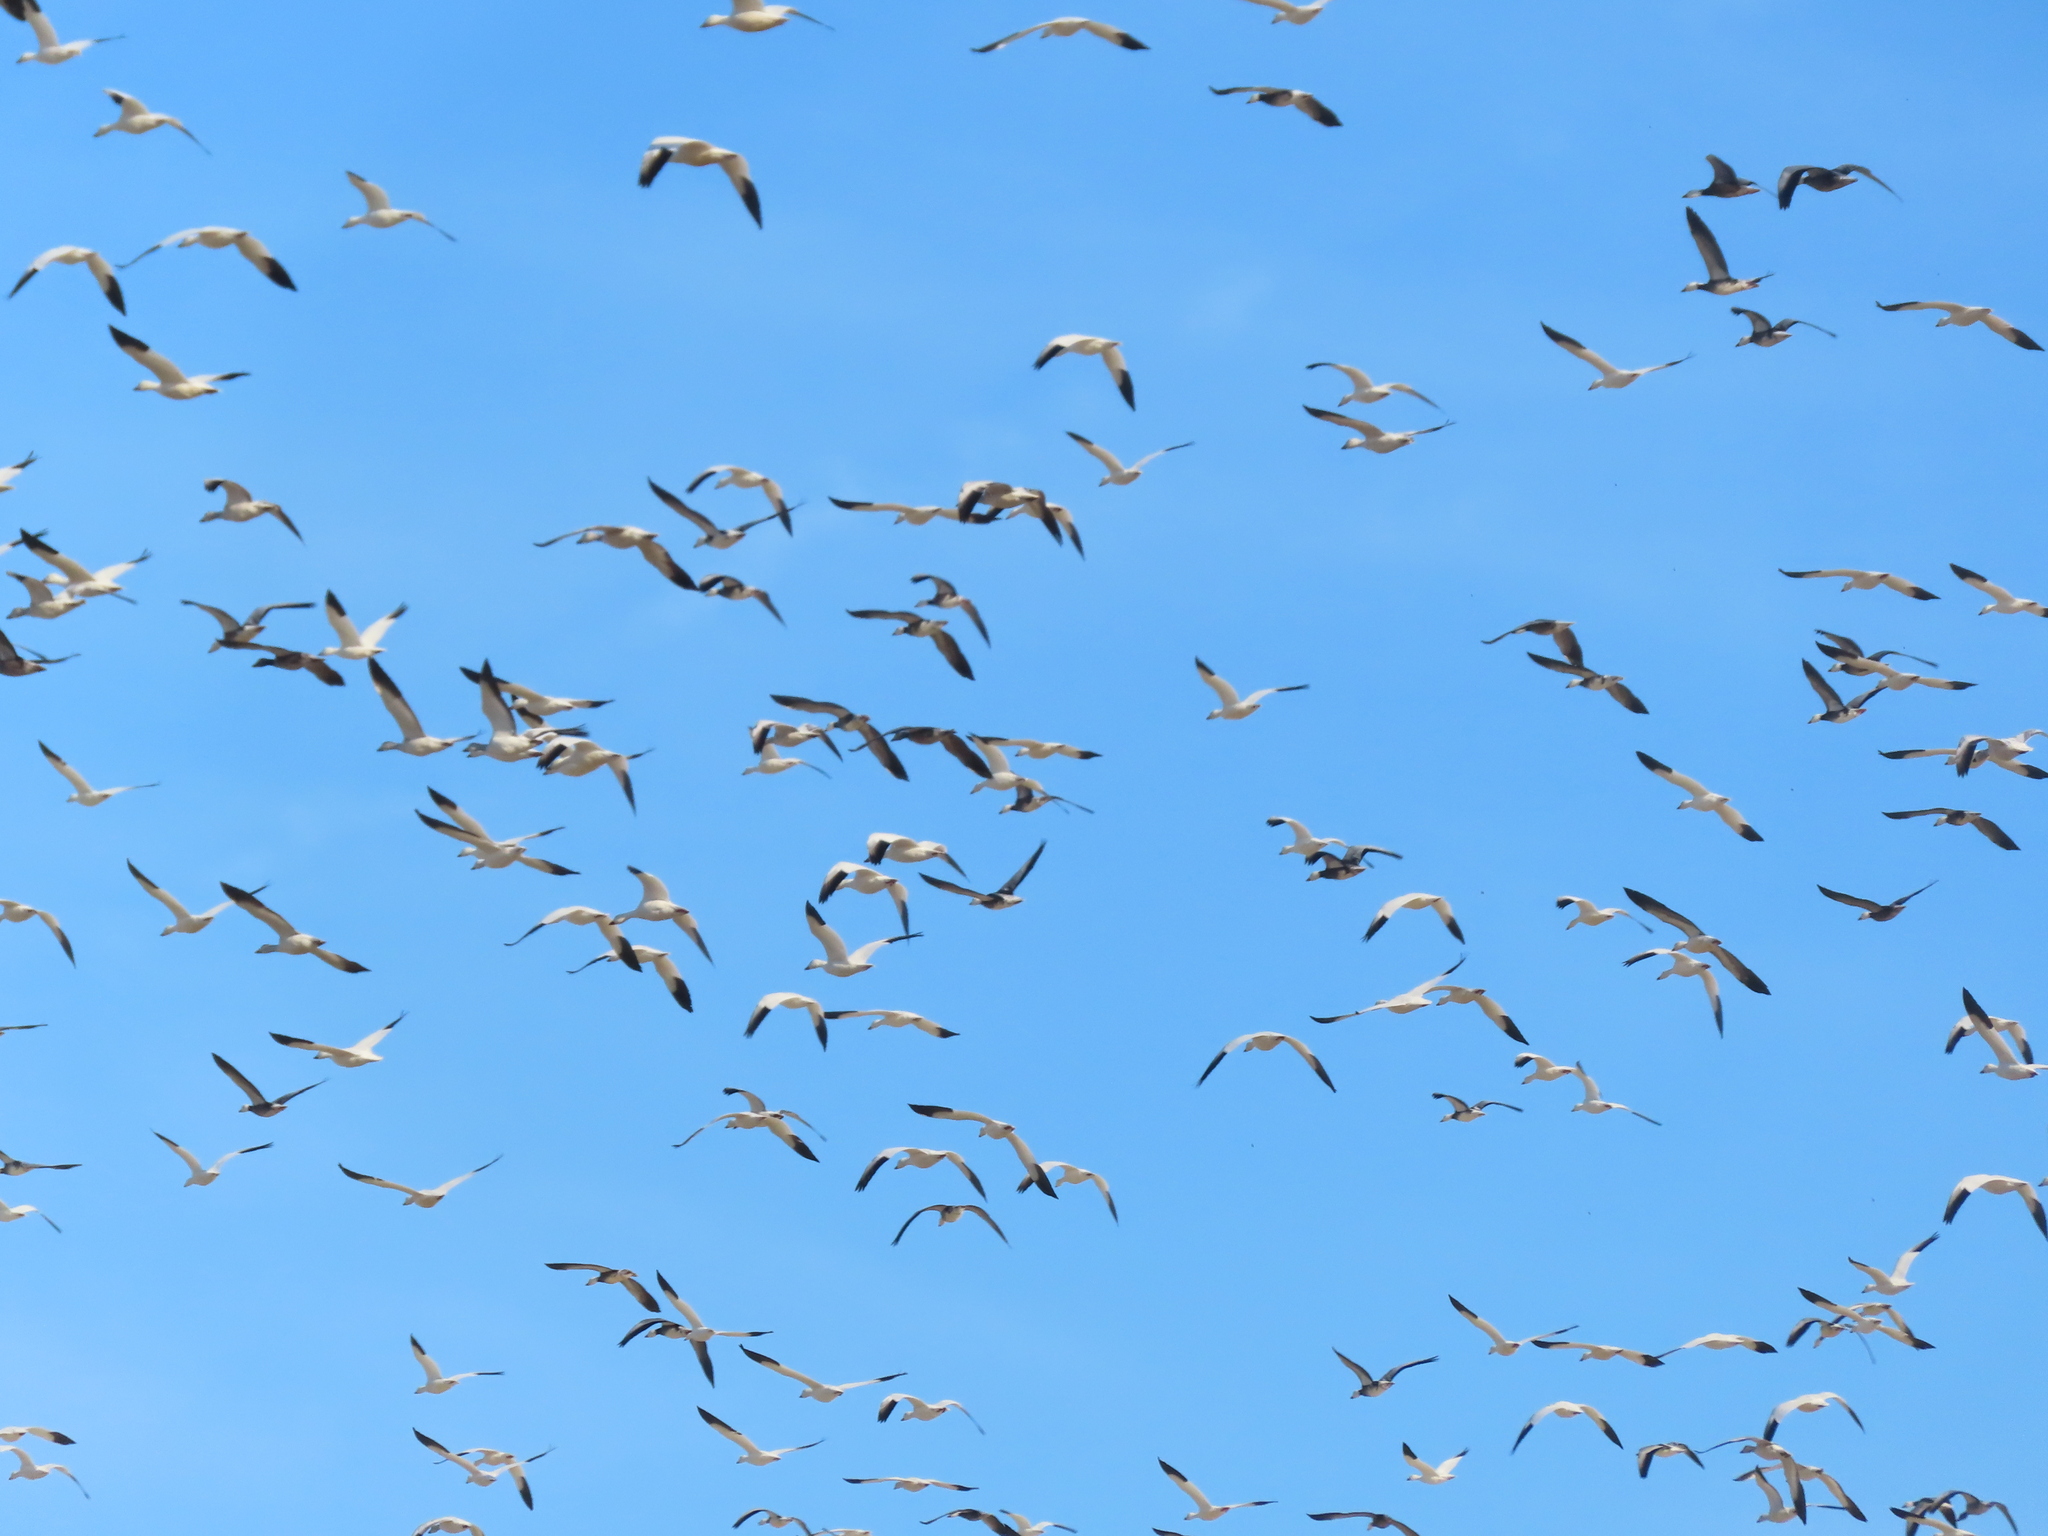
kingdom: Animalia
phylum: Chordata
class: Aves
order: Anseriformes
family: Anatidae
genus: Anser
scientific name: Anser caerulescens
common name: Snow goose
